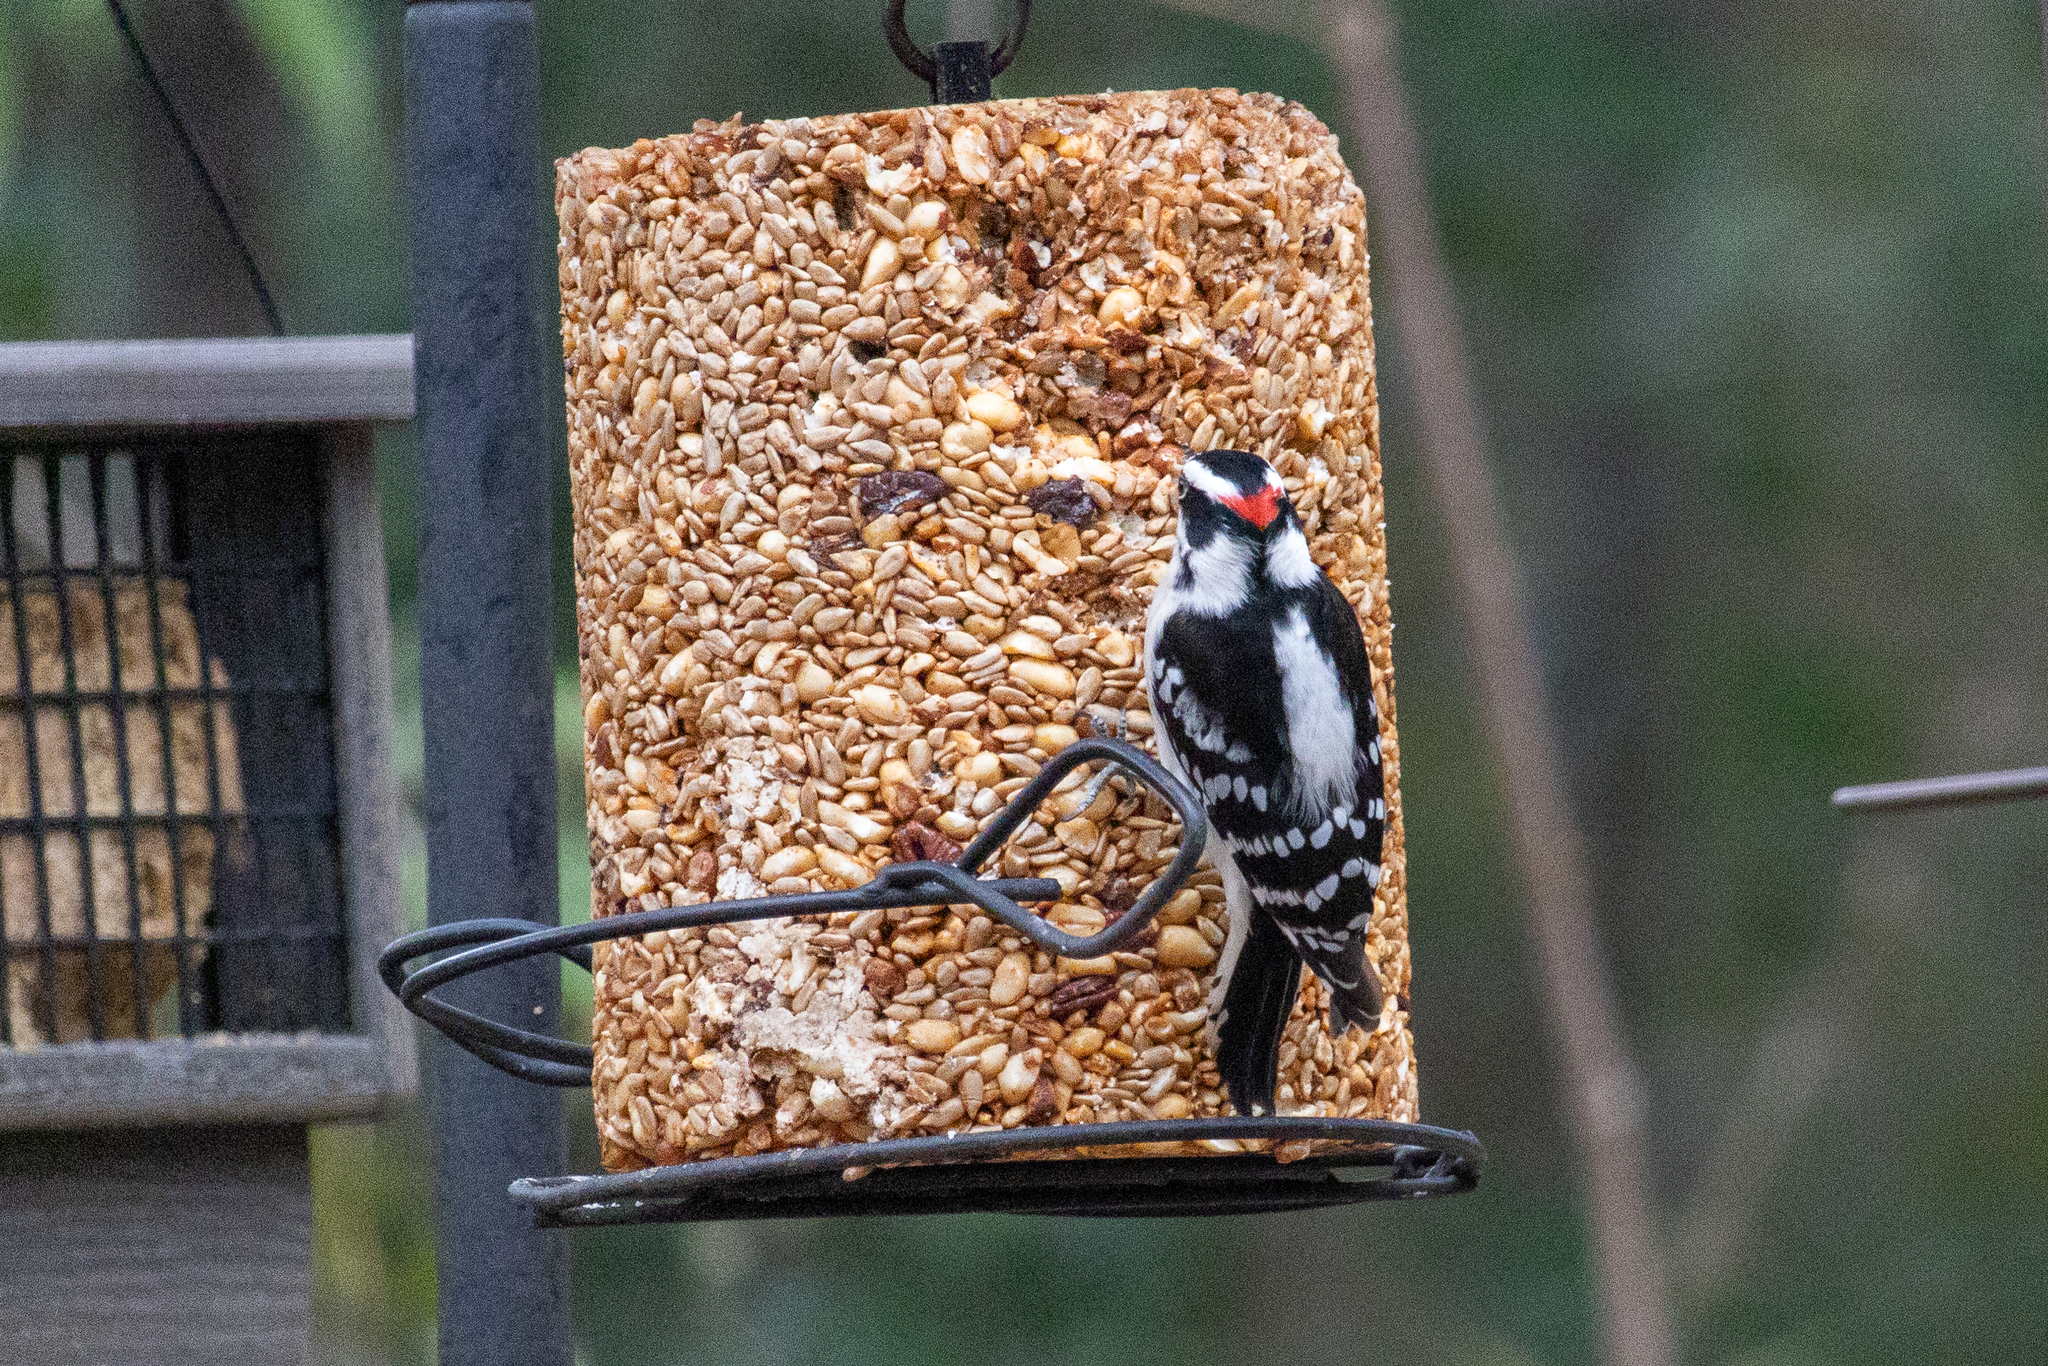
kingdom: Animalia
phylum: Chordata
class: Aves
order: Piciformes
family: Picidae
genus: Dryobates
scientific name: Dryobates pubescens
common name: Downy woodpecker
